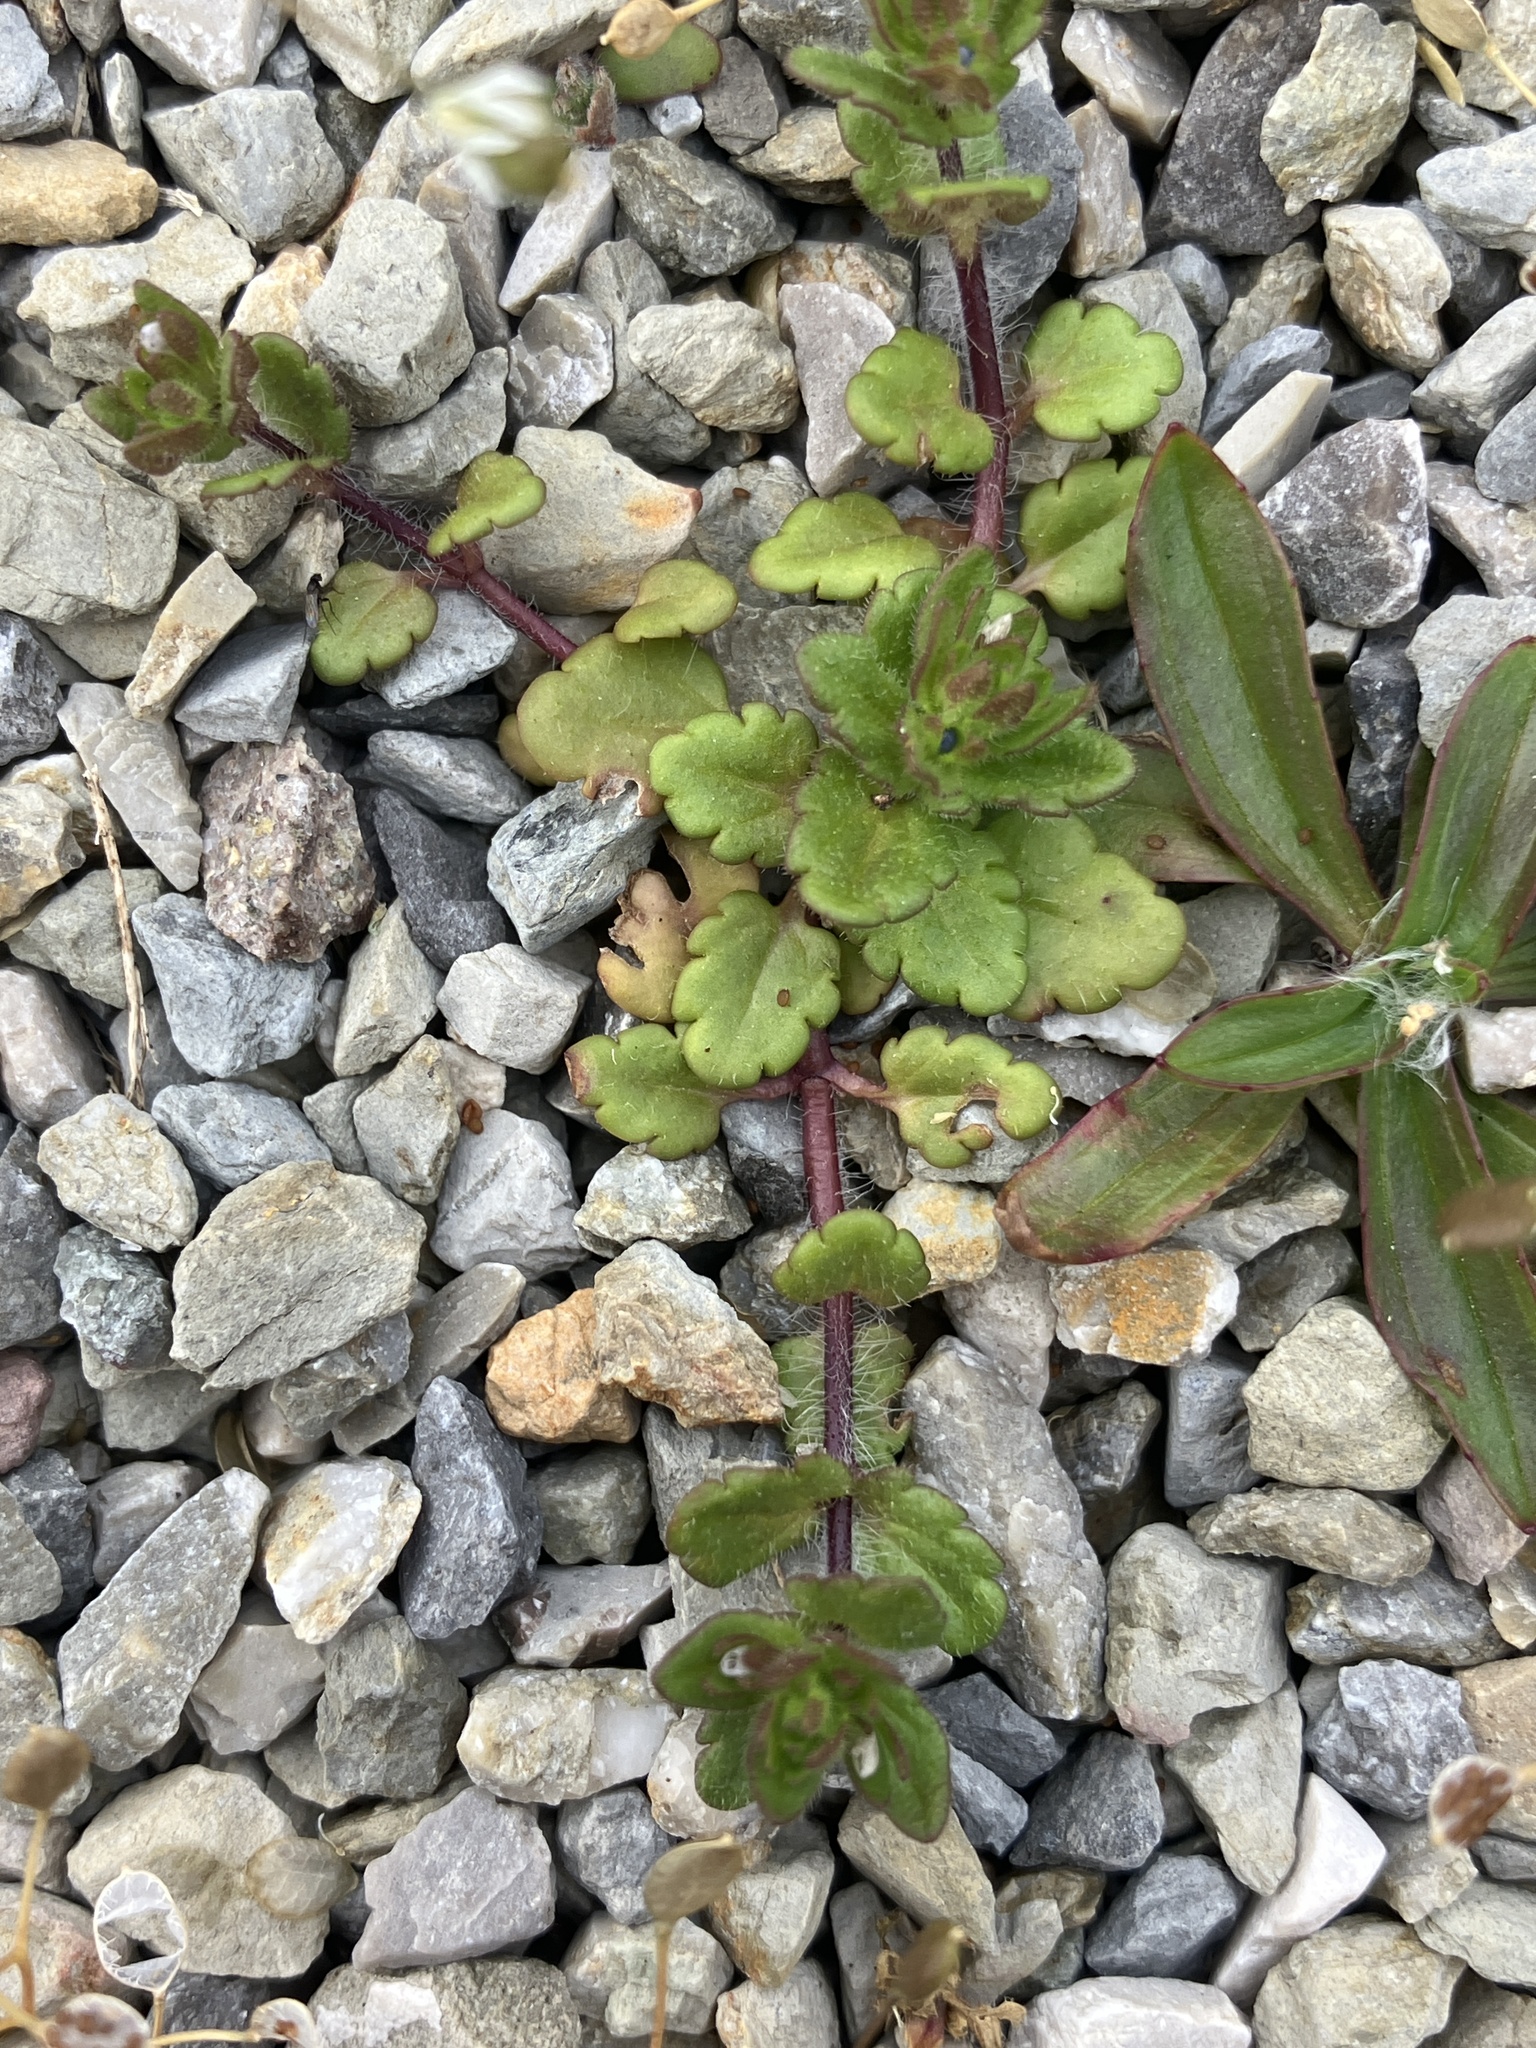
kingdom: Plantae
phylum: Tracheophyta
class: Magnoliopsida
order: Lamiales
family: Plantaginaceae
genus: Veronica
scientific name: Veronica polita
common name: Grey field-speedwell
